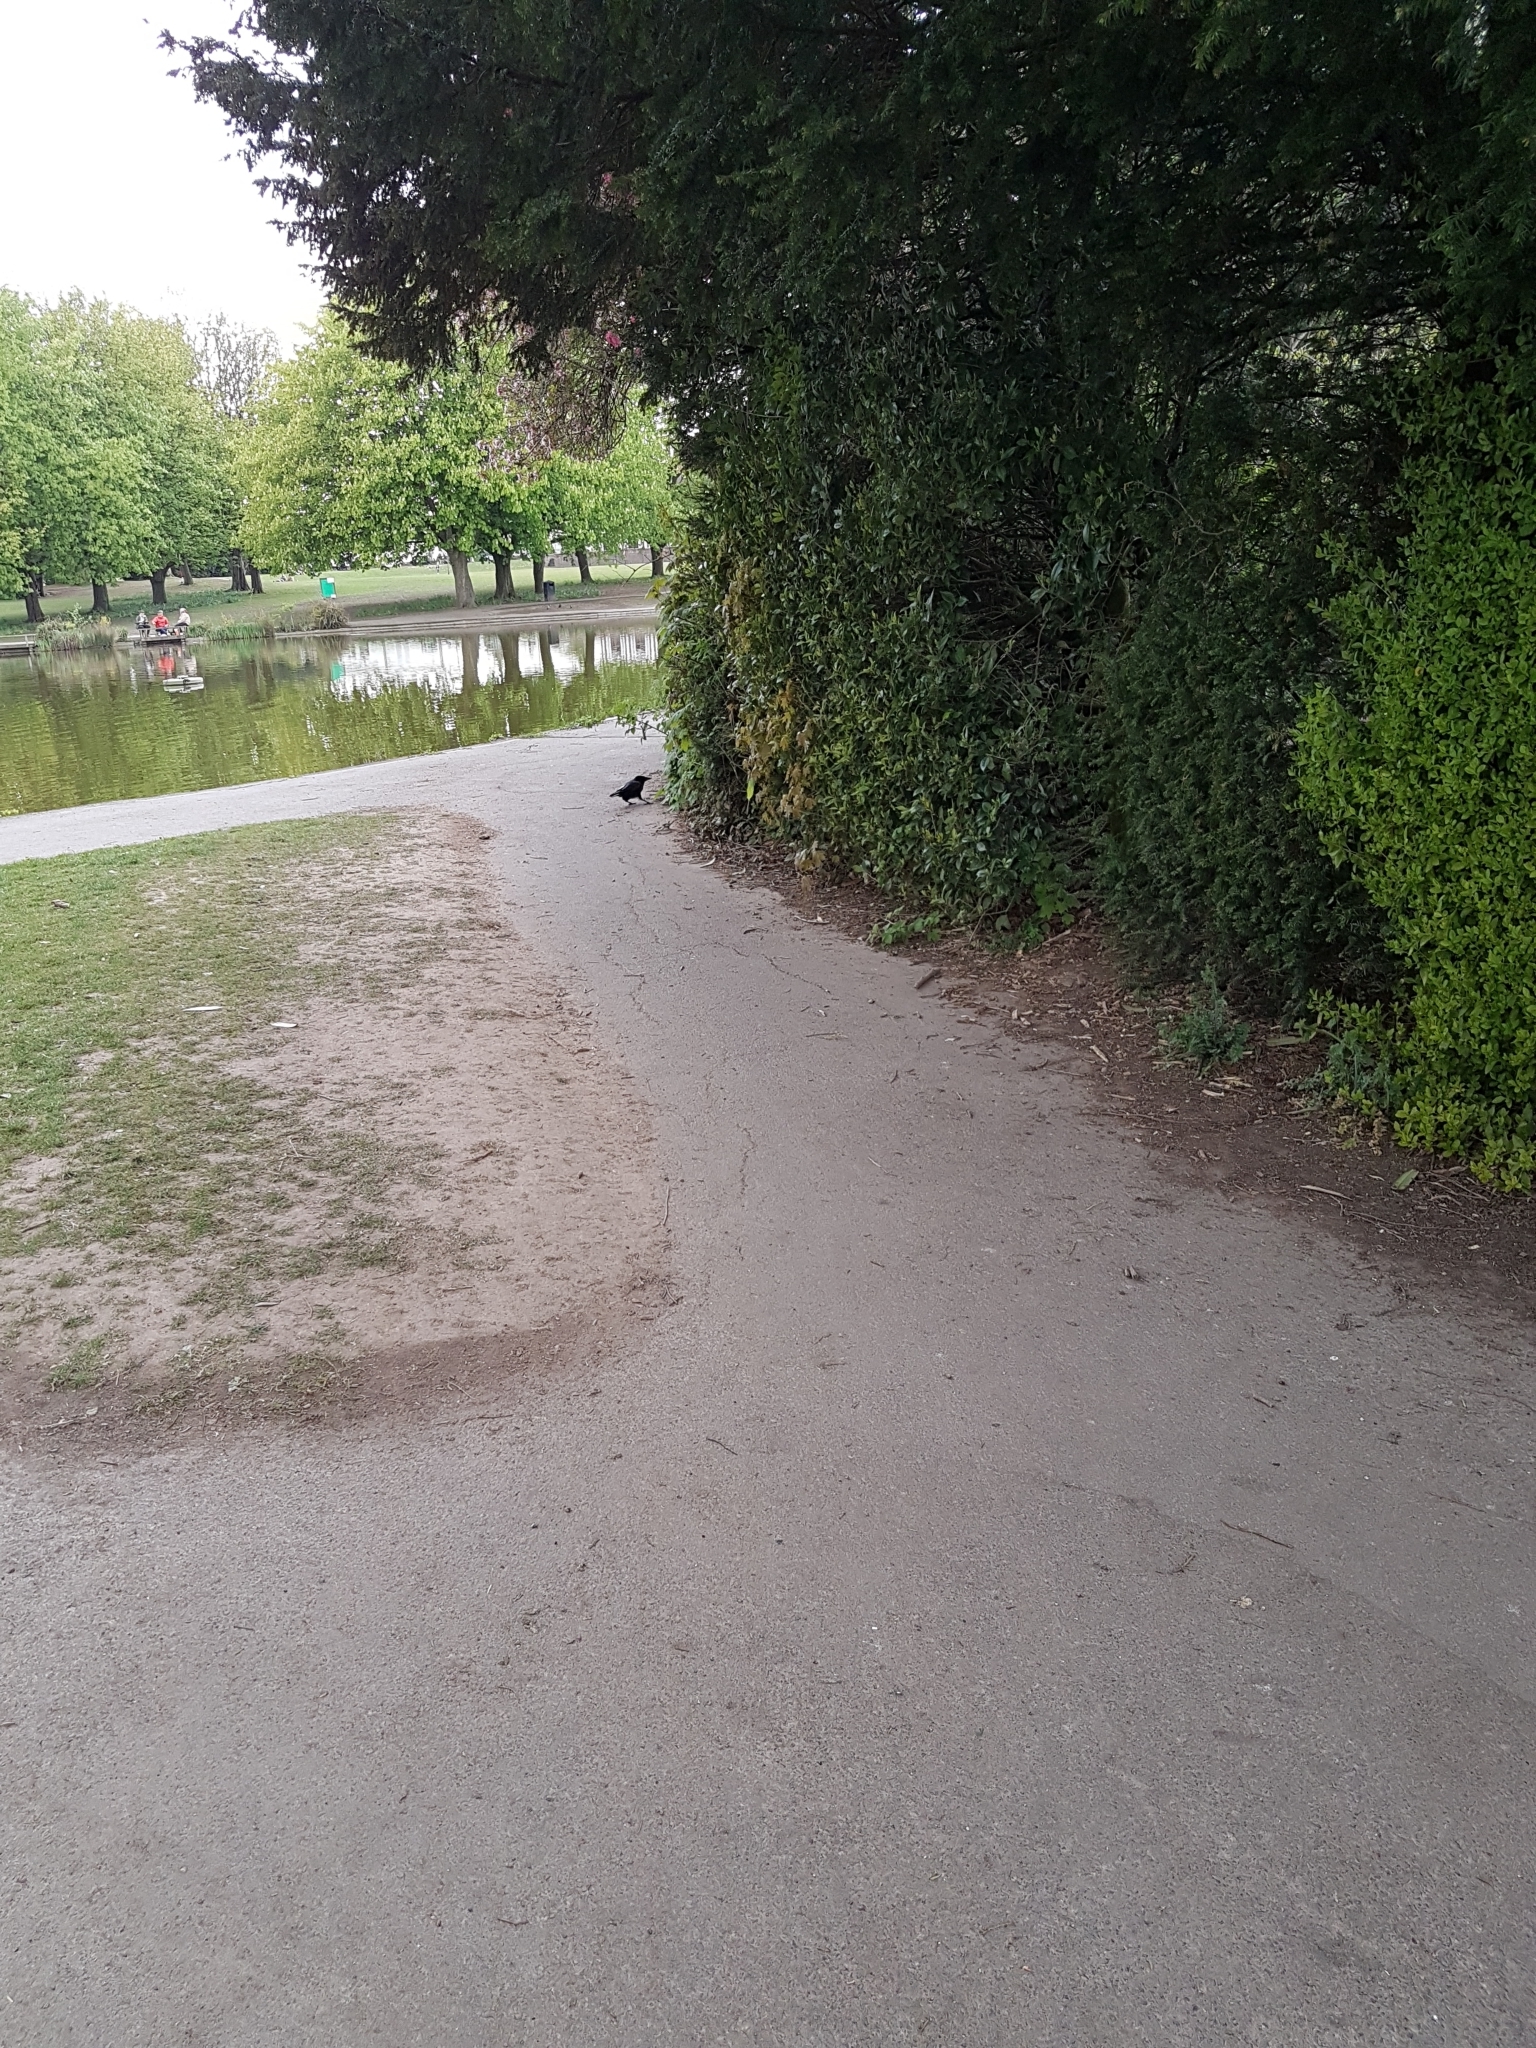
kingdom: Animalia
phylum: Chordata
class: Aves
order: Passeriformes
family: Corvidae
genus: Corvus
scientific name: Corvus corone
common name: Carrion crow
